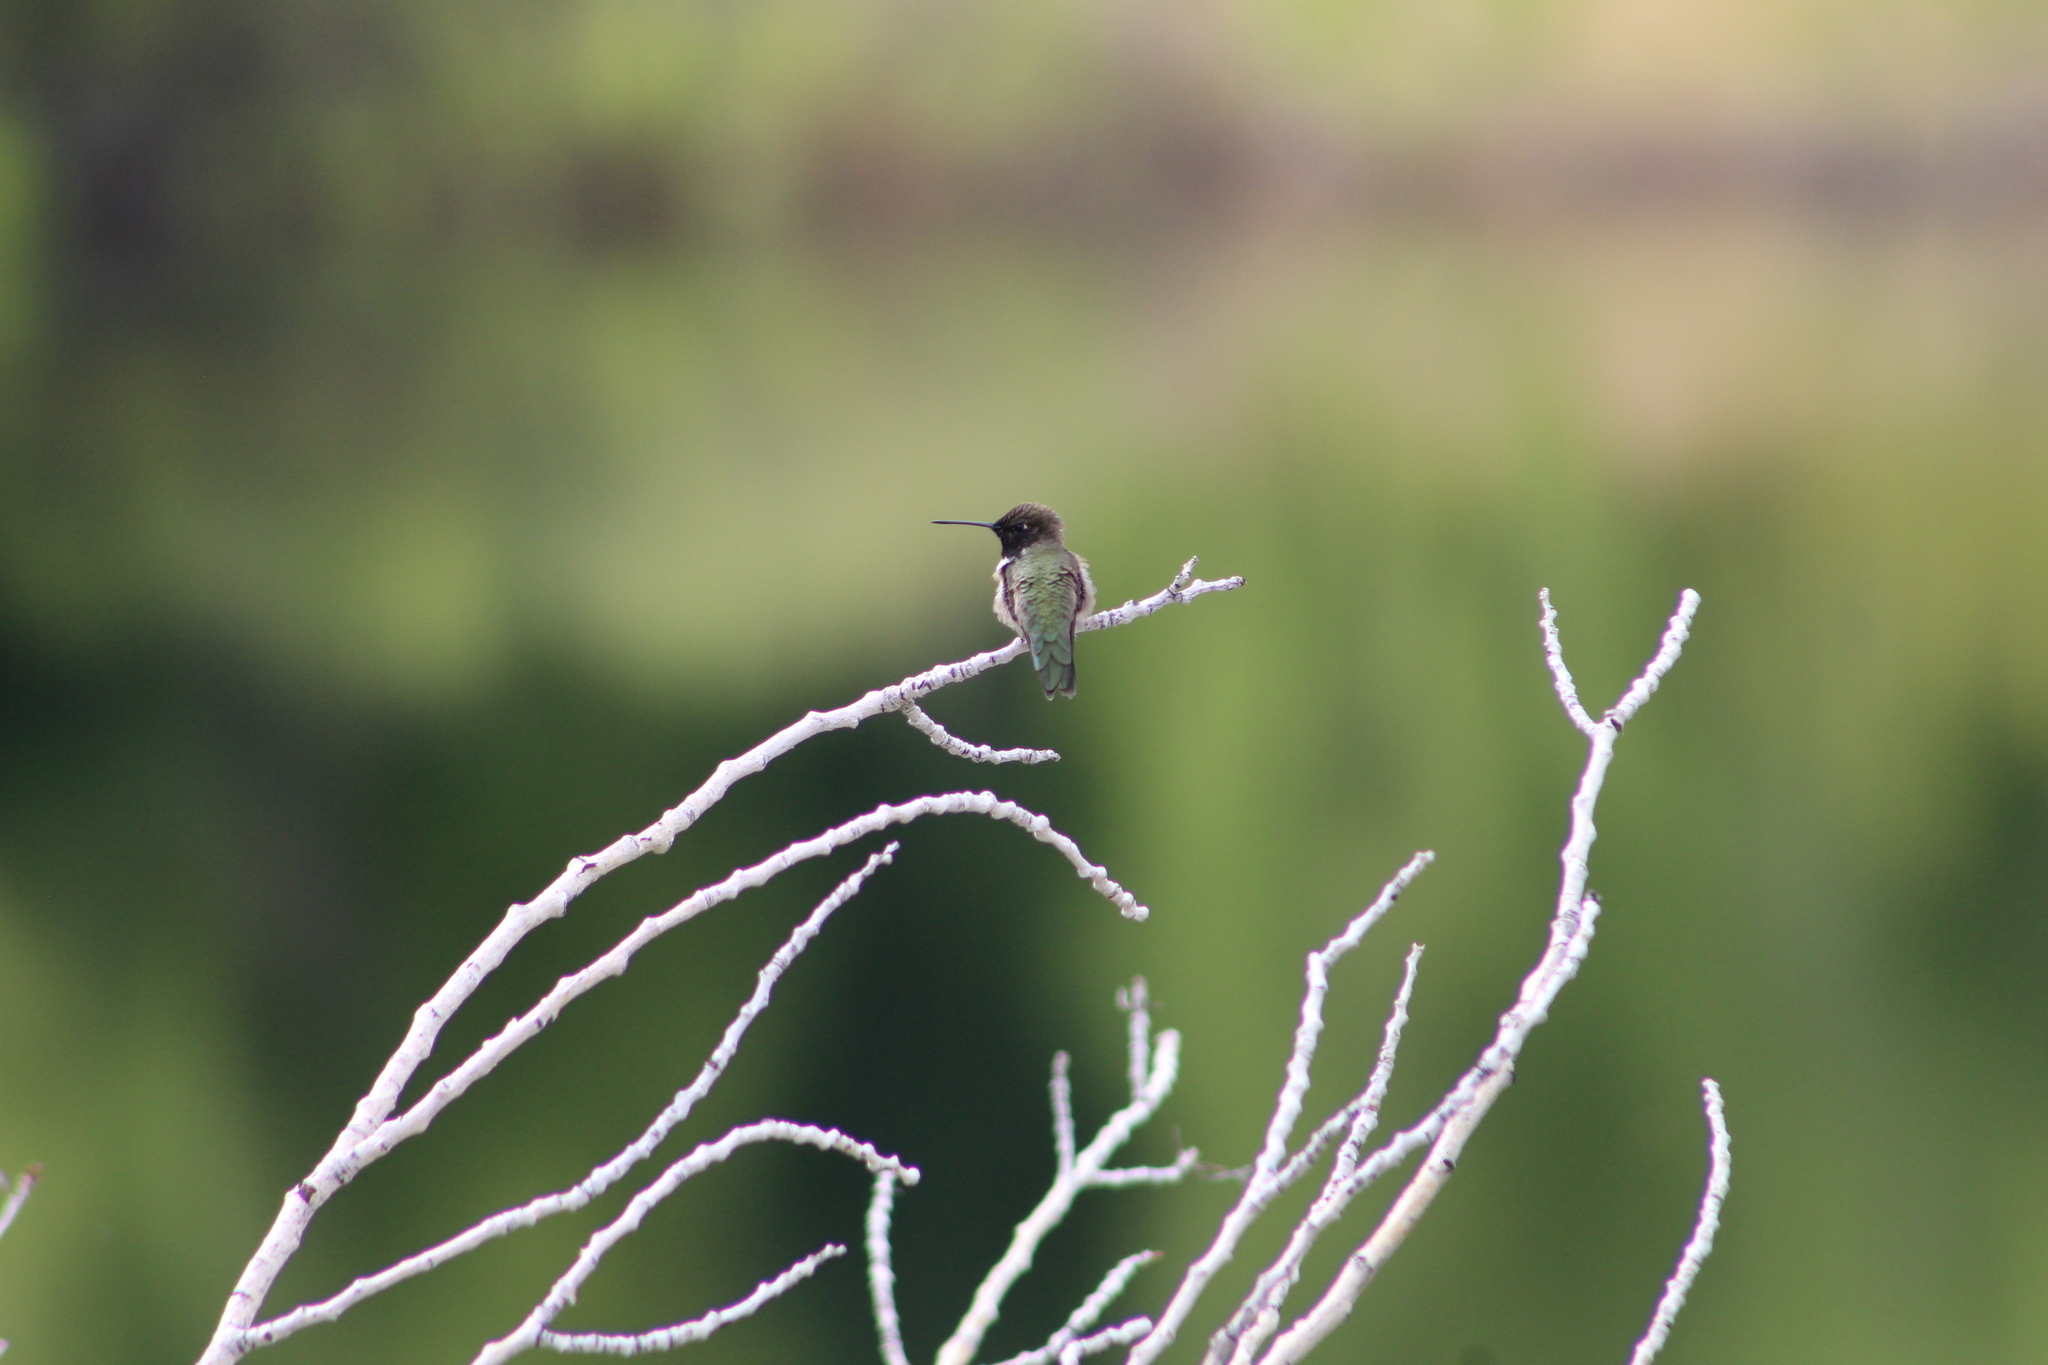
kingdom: Animalia
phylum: Chordata
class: Aves
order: Apodiformes
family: Trochilidae
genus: Archilochus
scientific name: Archilochus alexandri
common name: Black-chinned hummingbird
